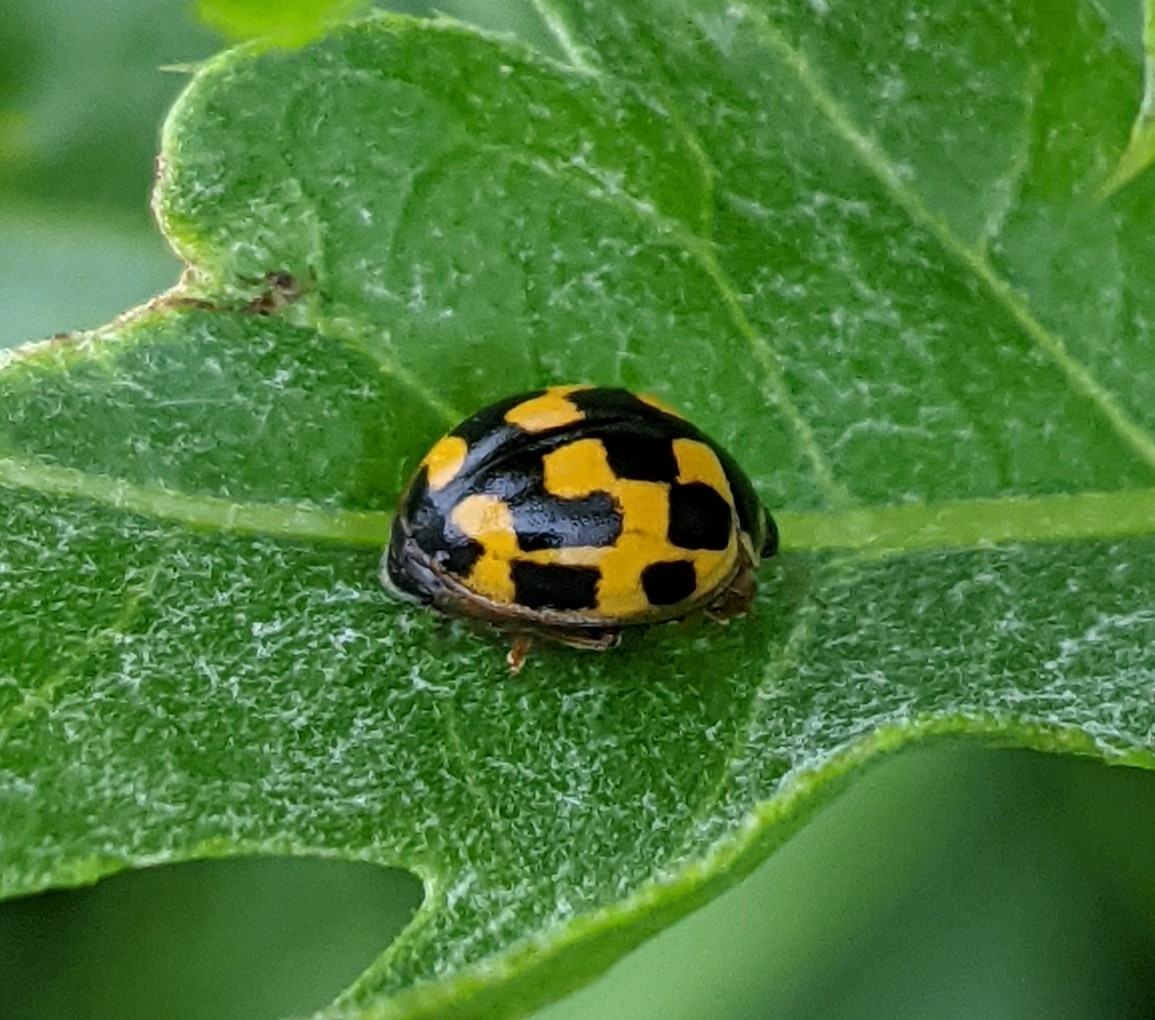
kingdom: Animalia
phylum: Arthropoda
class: Insecta
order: Coleoptera
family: Coccinellidae
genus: Propylaea
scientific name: Propylaea quatuordecimpunctata
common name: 14-spotted ladybird beetle
